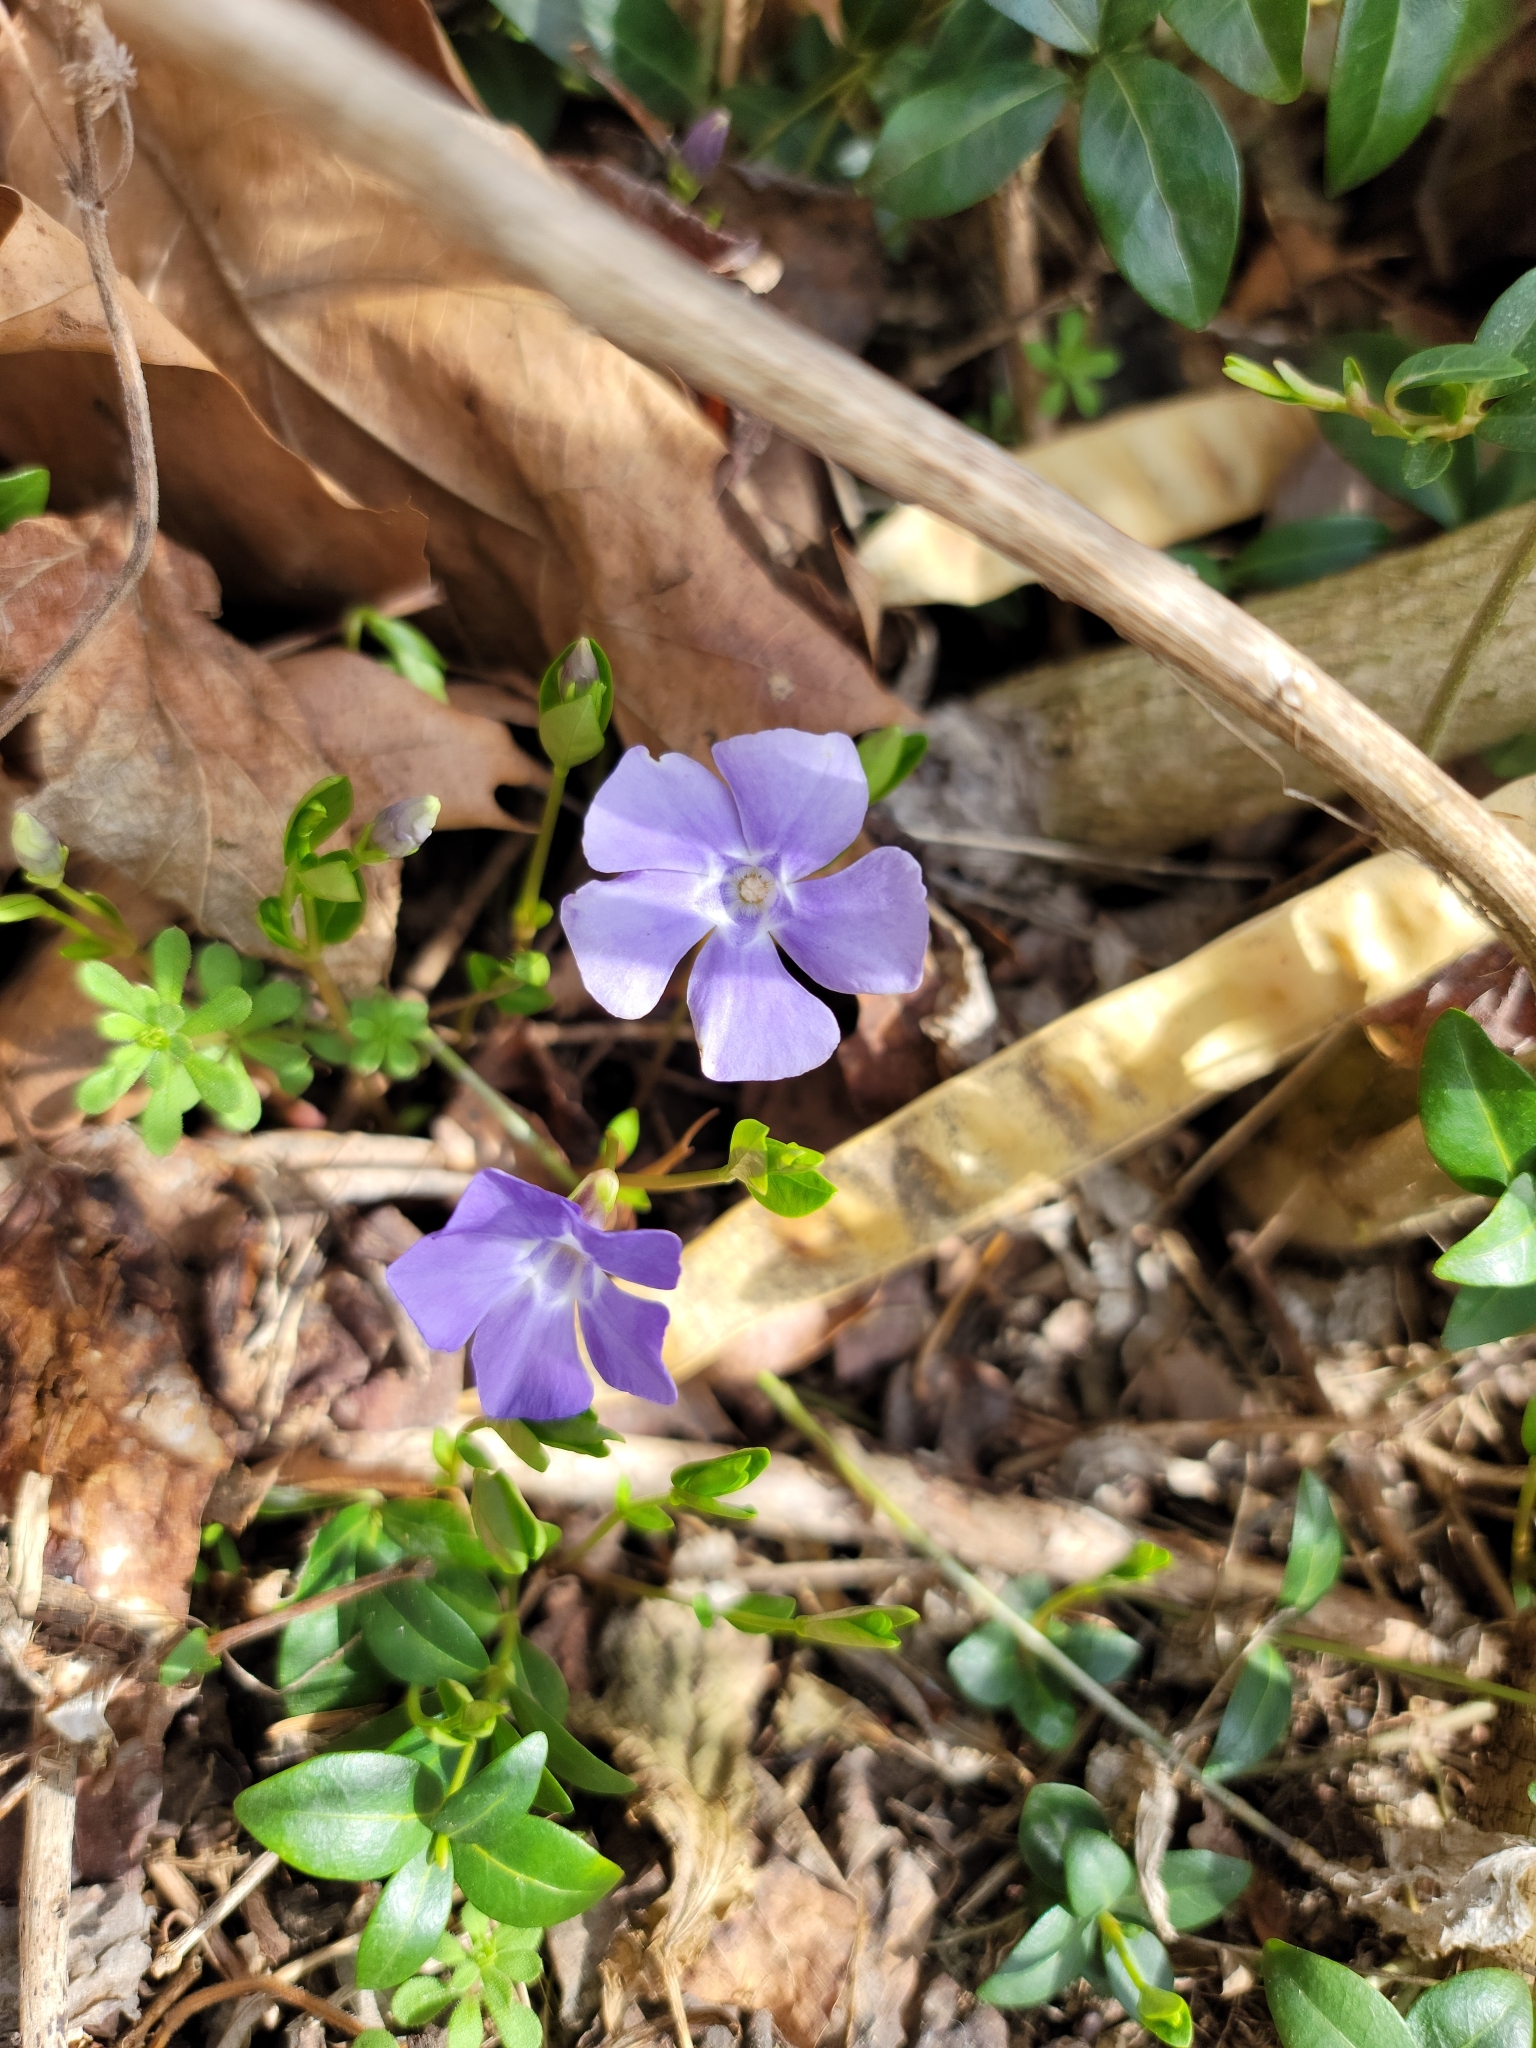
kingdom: Plantae
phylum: Tracheophyta
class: Magnoliopsida
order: Gentianales
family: Apocynaceae
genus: Vinca
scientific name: Vinca minor
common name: Lesser periwinkle
